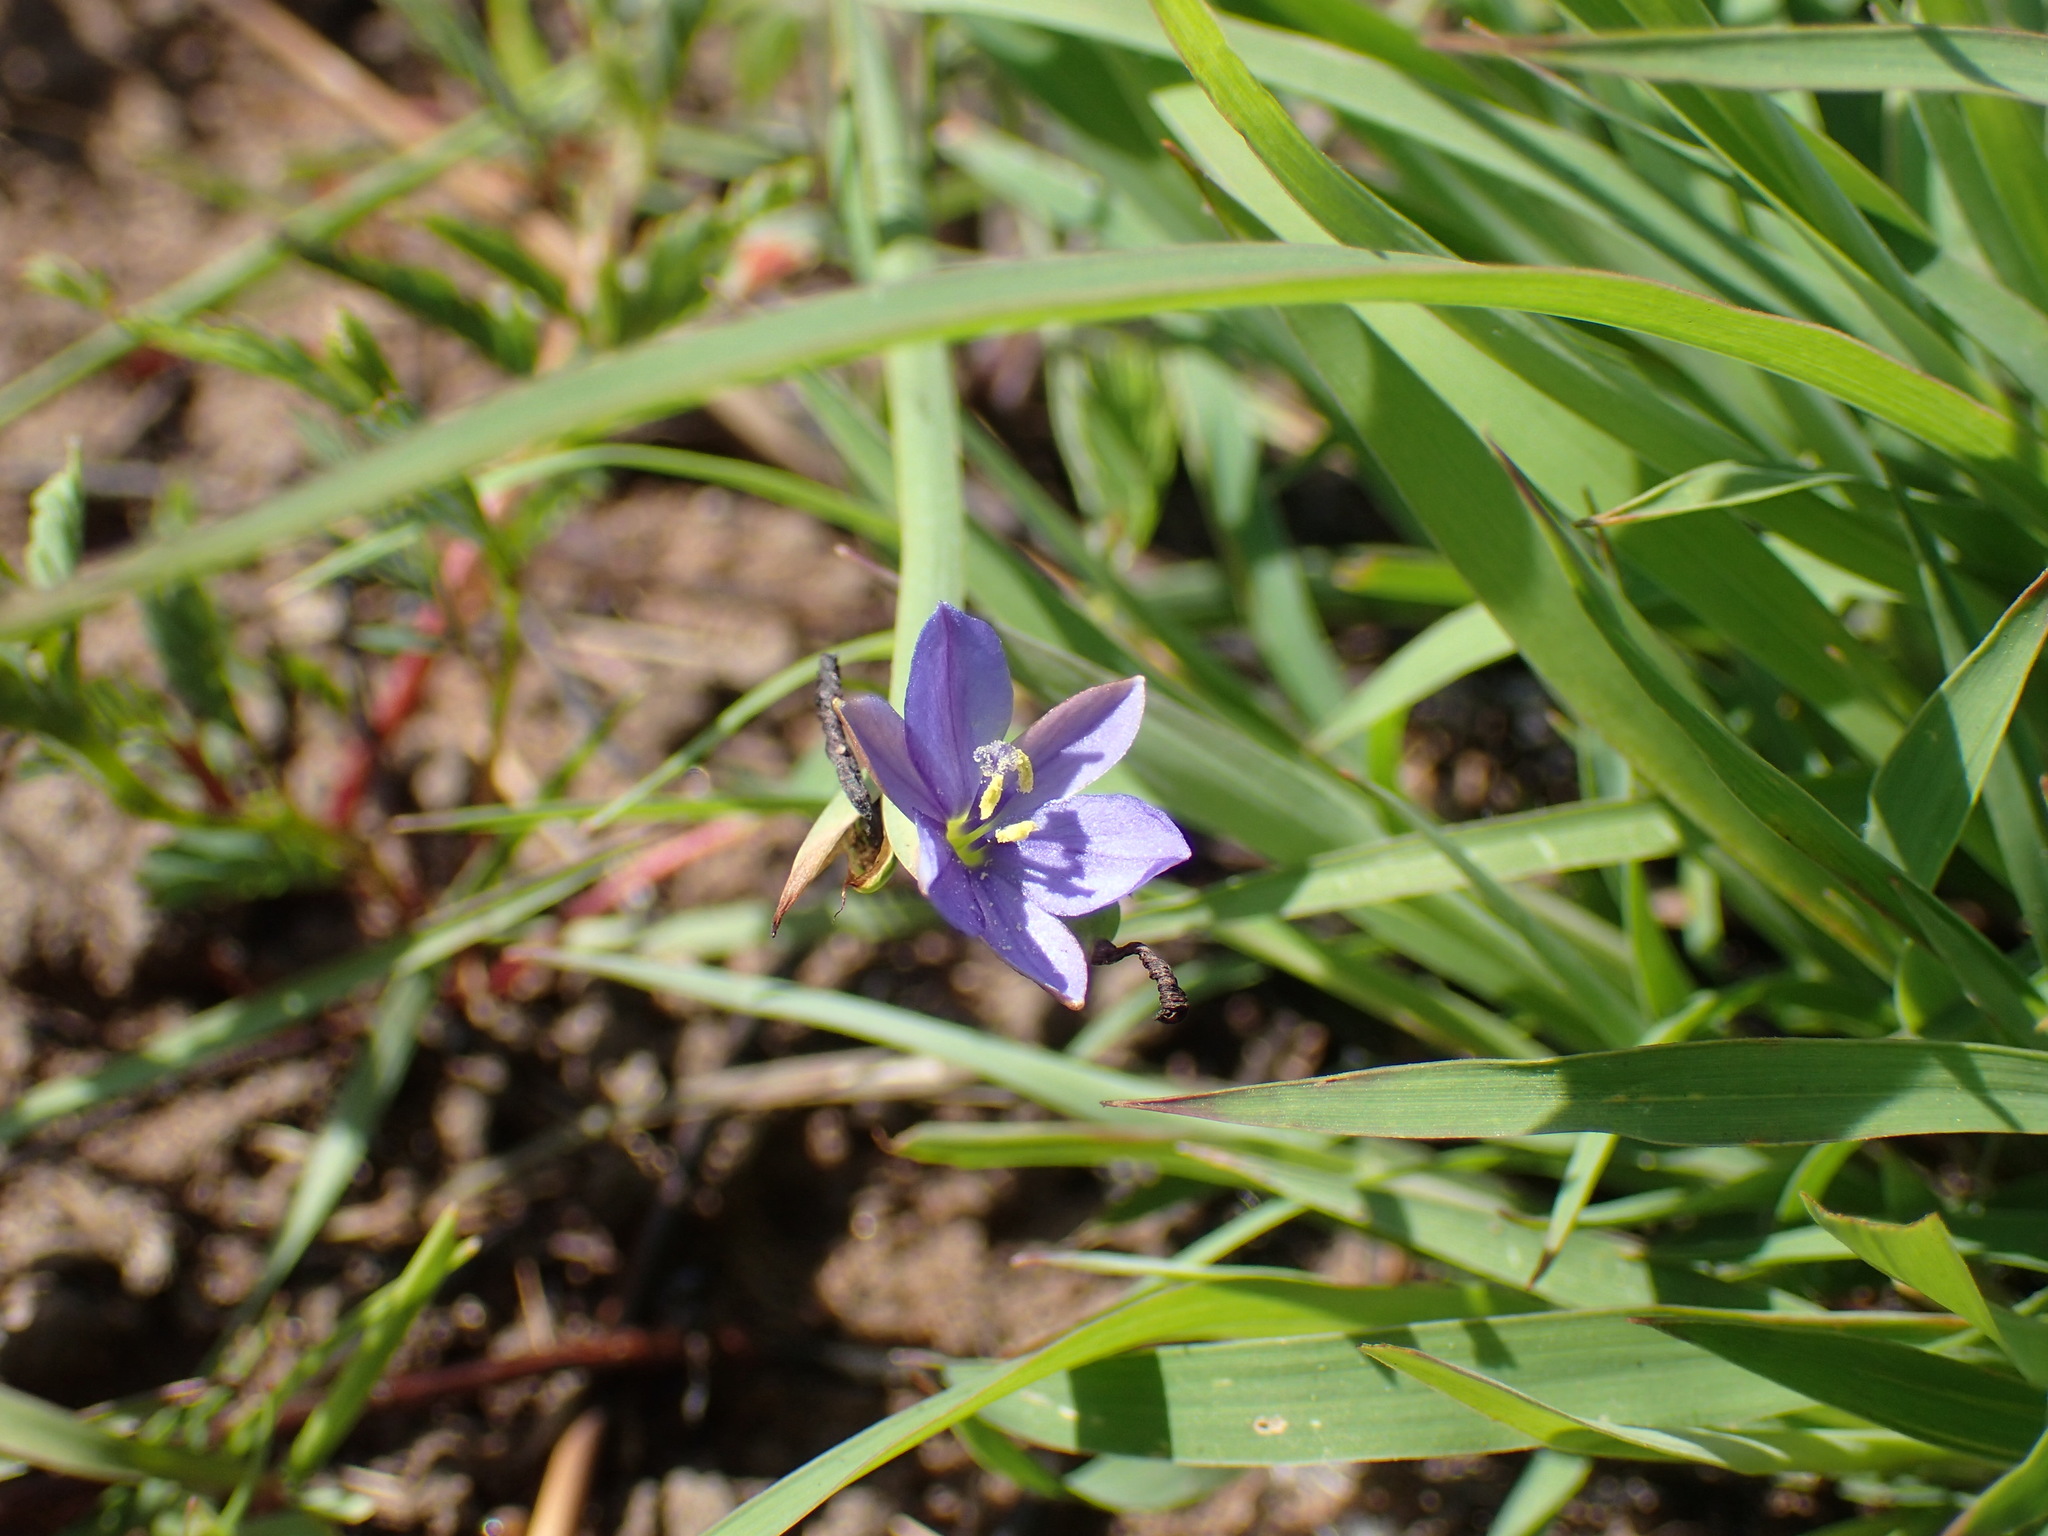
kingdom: Plantae
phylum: Tracheophyta
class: Liliopsida
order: Asparagales
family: Iridaceae
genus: Aristea
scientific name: Aristea abyssinica
